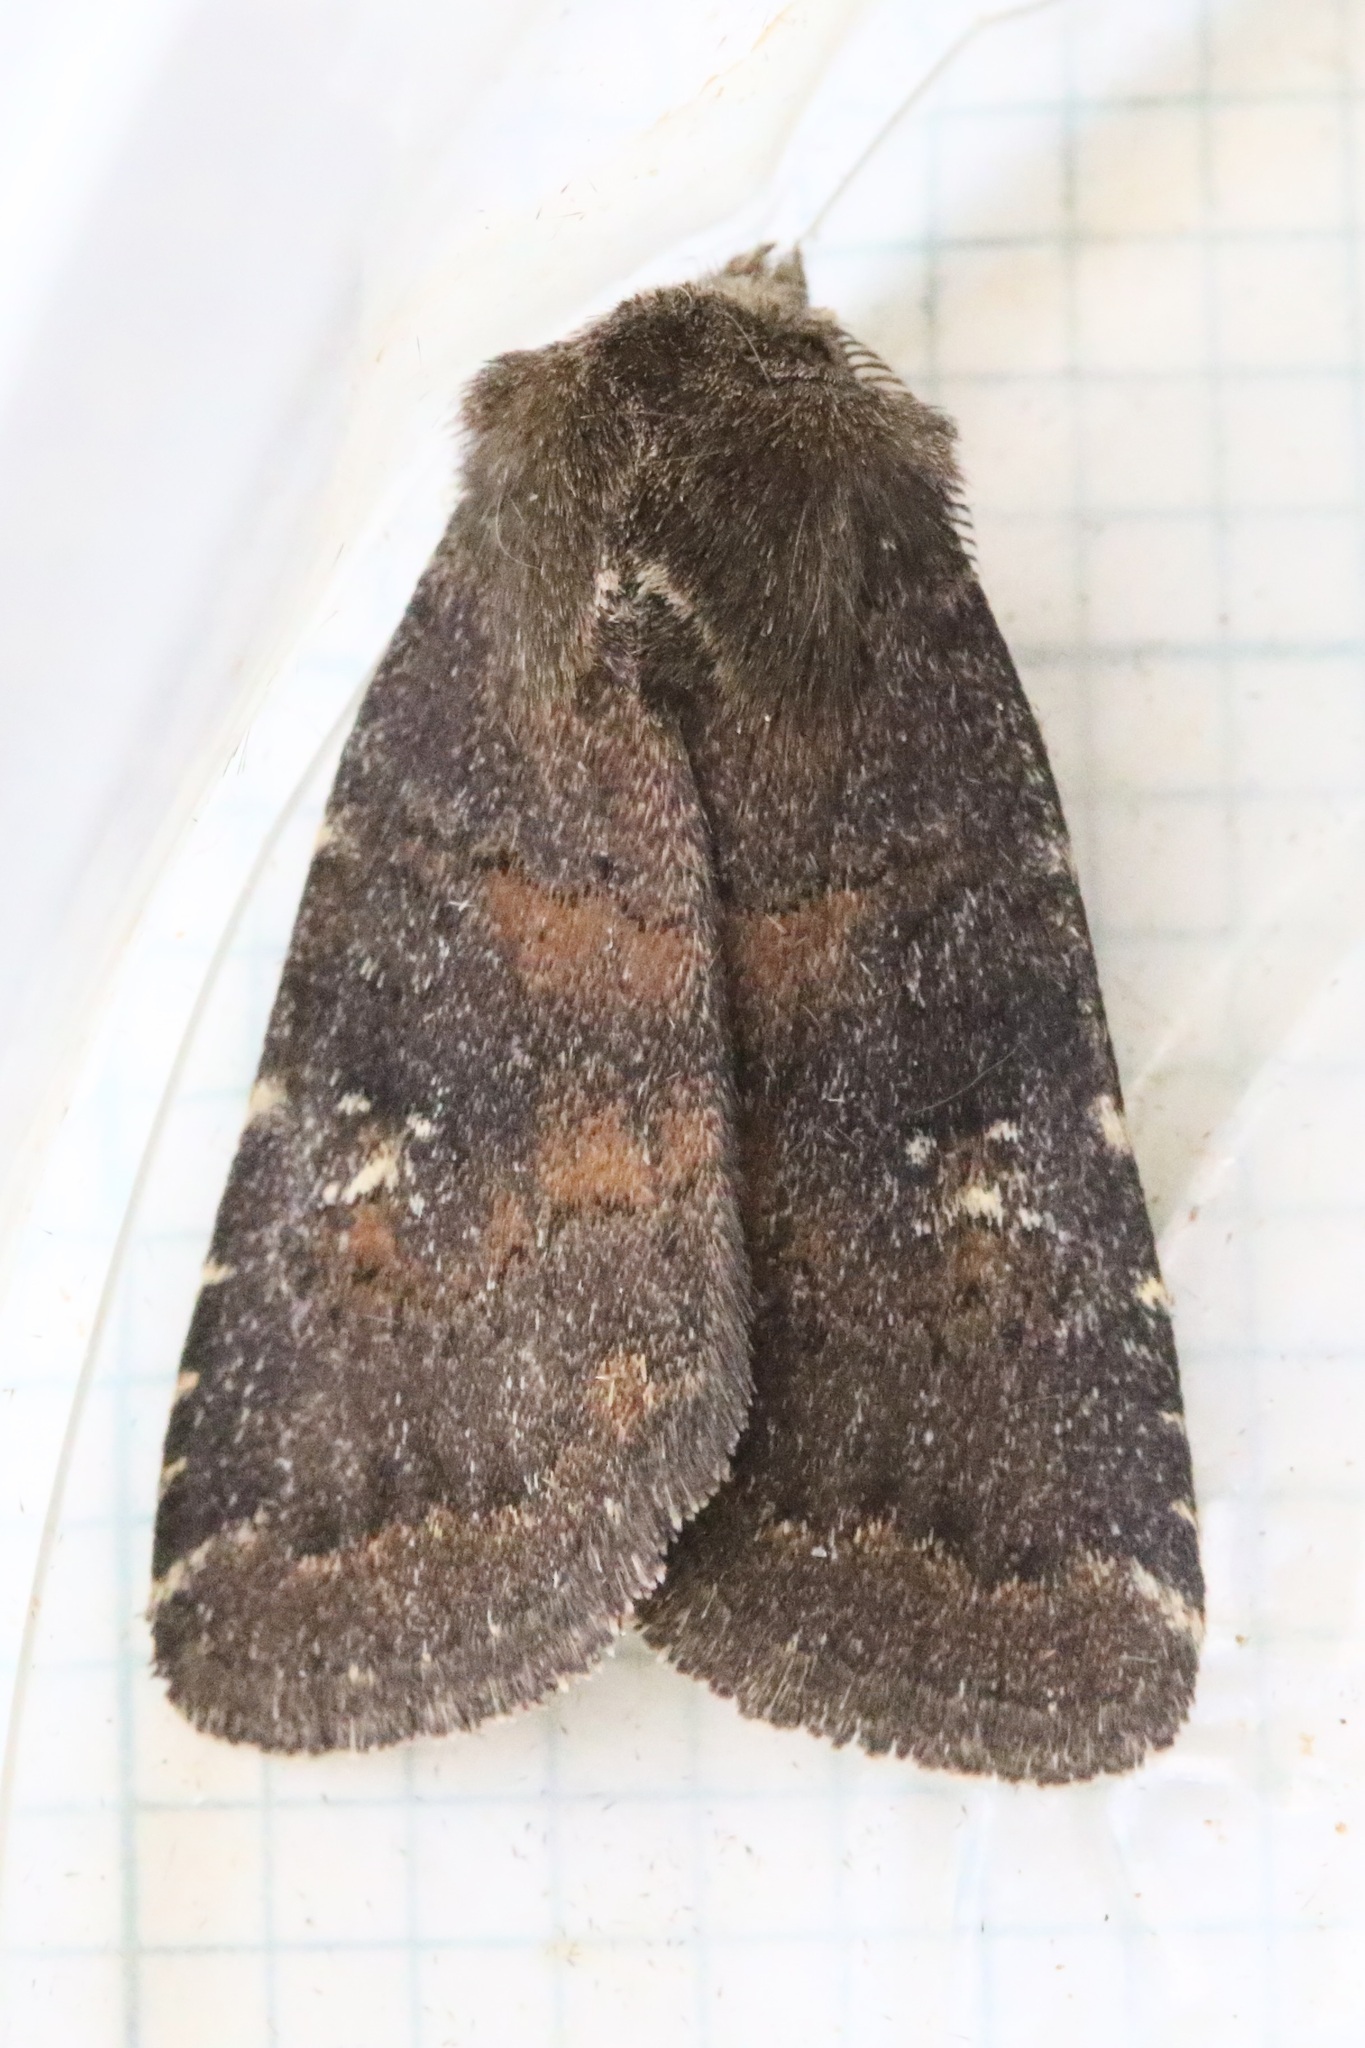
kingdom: Animalia
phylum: Arthropoda
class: Insecta
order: Lepidoptera
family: Noctuidae
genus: Charanyca
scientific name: Charanyca ferruginea
